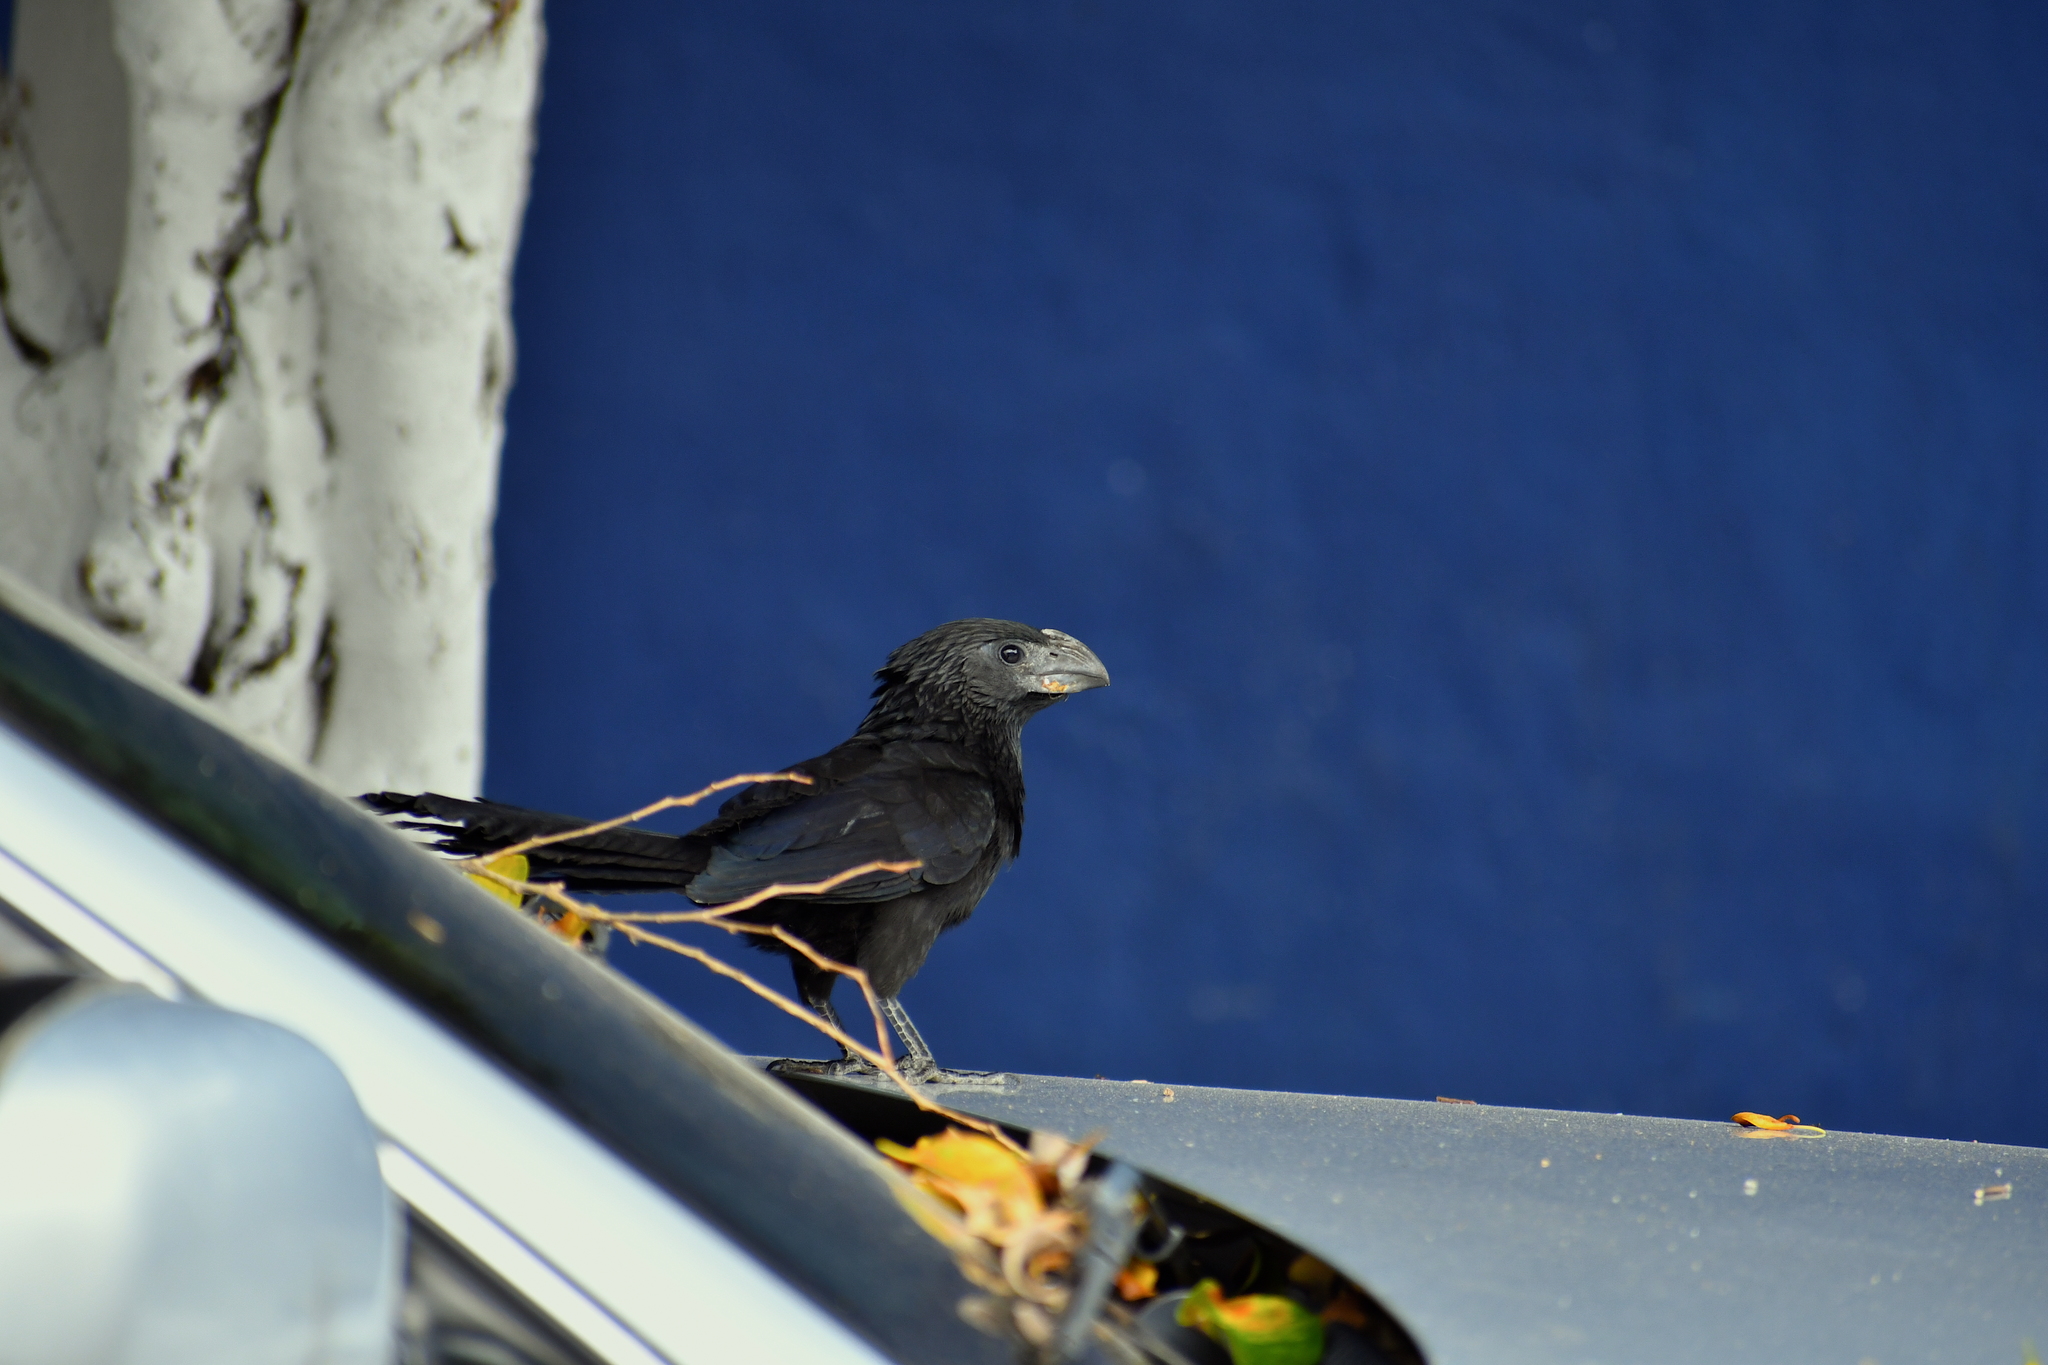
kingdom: Animalia
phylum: Chordata
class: Aves
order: Cuculiformes
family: Cuculidae
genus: Crotophaga
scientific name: Crotophaga sulcirostris
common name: Groove-billed ani
